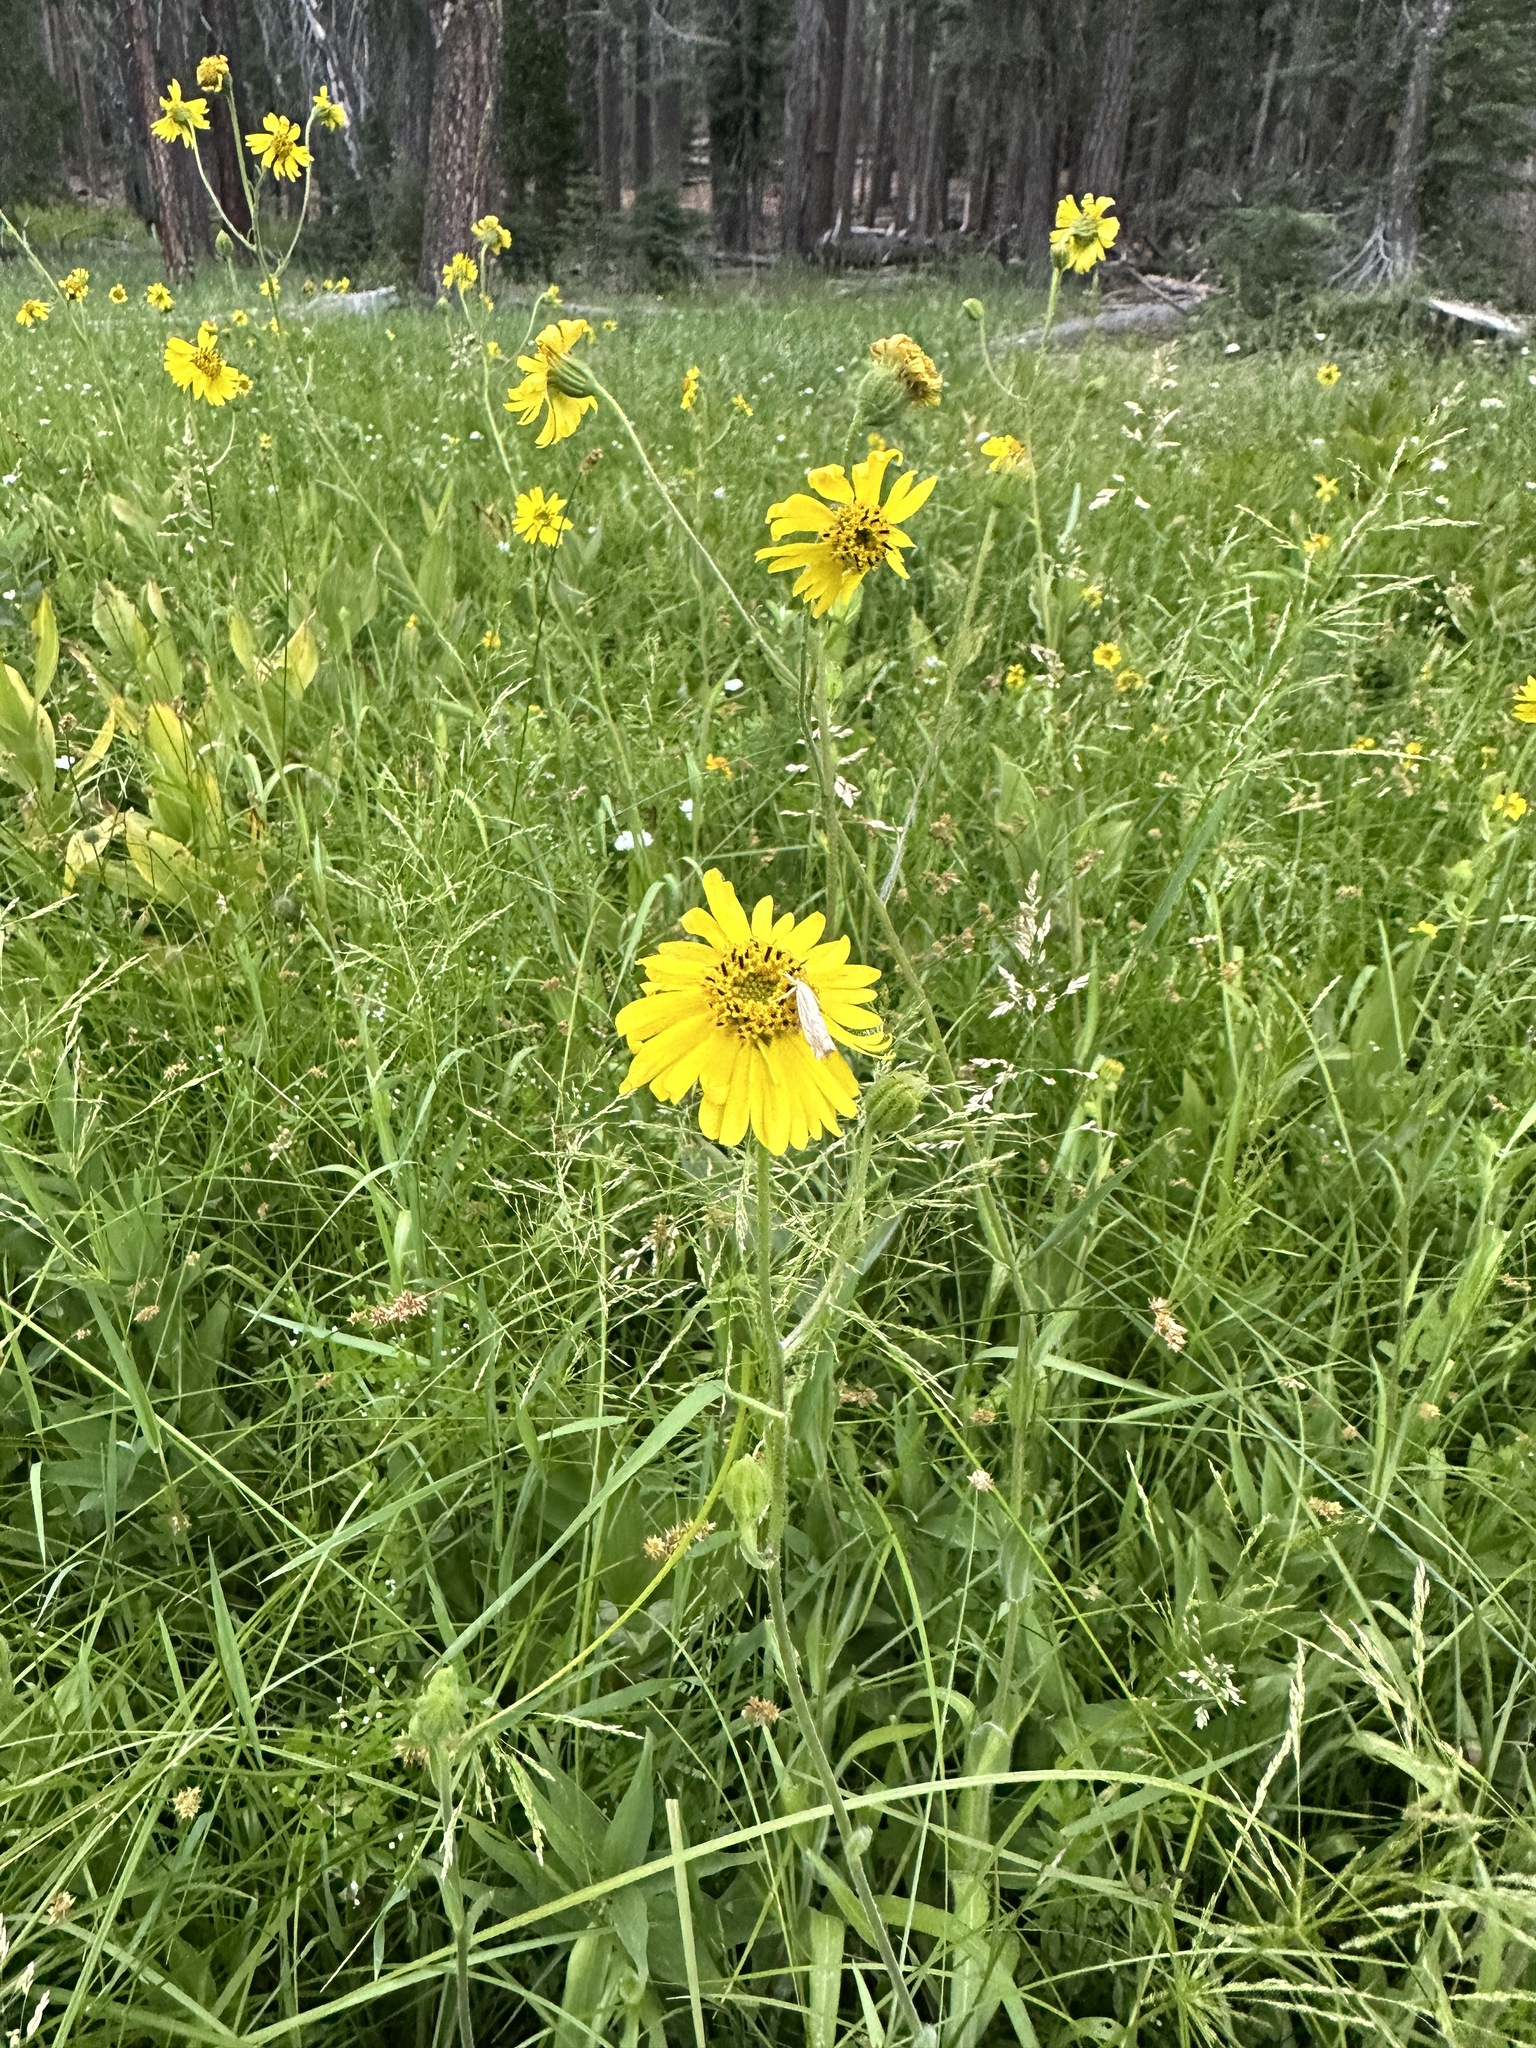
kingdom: Plantae
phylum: Tracheophyta
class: Magnoliopsida
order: Asterales
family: Asteraceae
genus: Kyhosia
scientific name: Kyhosia bolanderi
